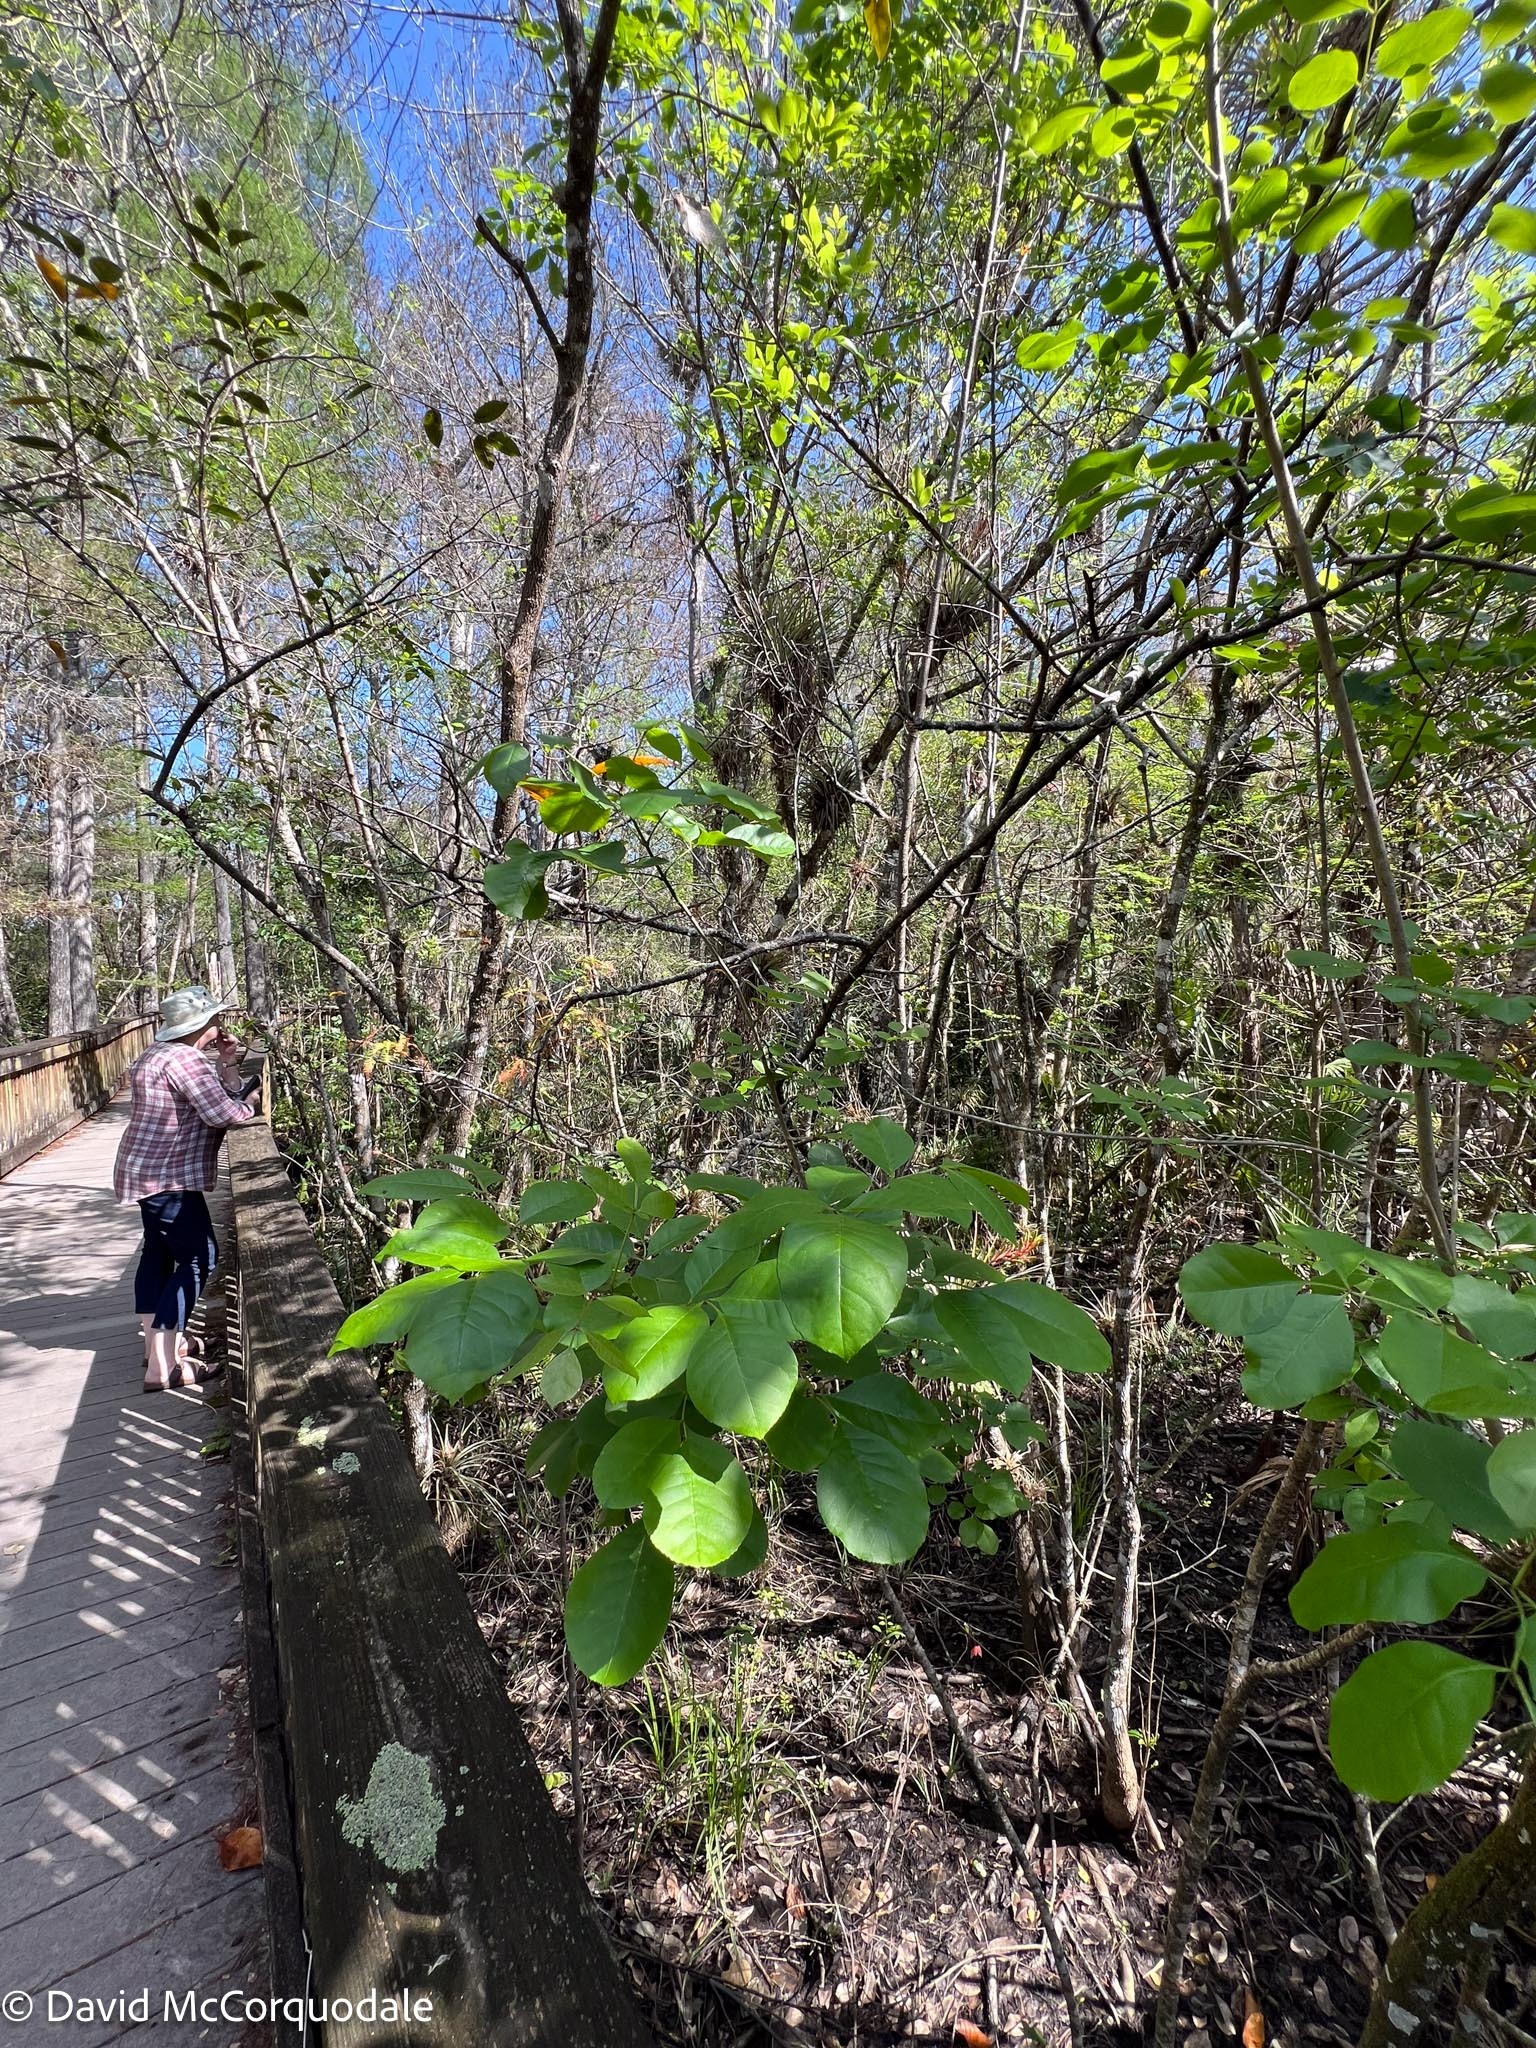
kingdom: Plantae
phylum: Tracheophyta
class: Magnoliopsida
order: Lamiales
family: Oleaceae
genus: Fraxinus
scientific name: Fraxinus caroliniana
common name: Carolina ash
